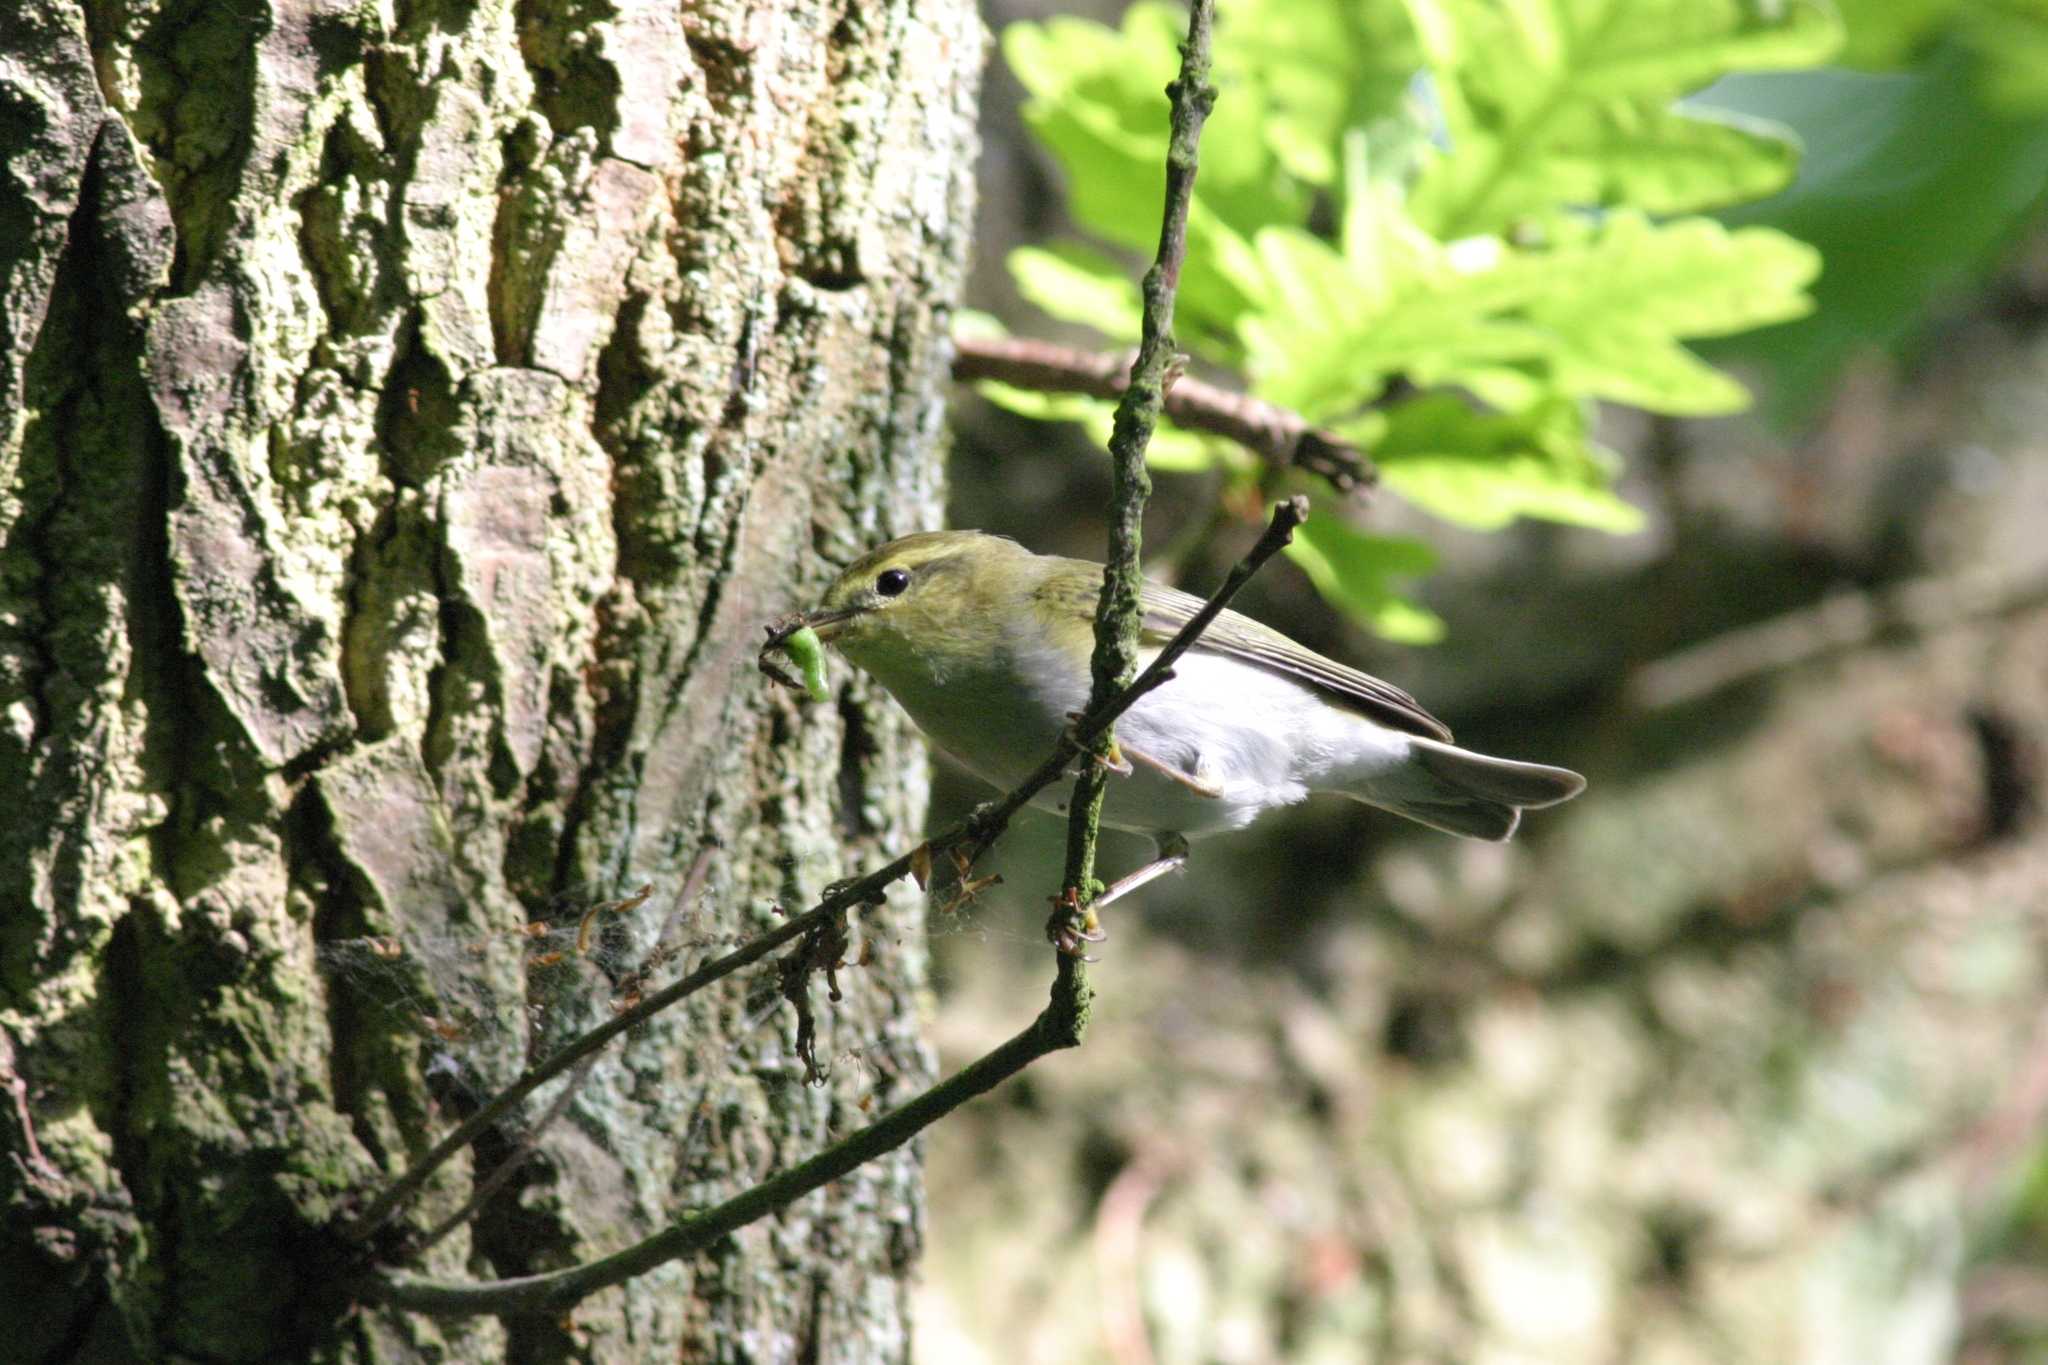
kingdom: Animalia
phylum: Chordata
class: Aves
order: Passeriformes
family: Phylloscopidae
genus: Phylloscopus
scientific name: Phylloscopus sibillatrix
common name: Wood warbler
